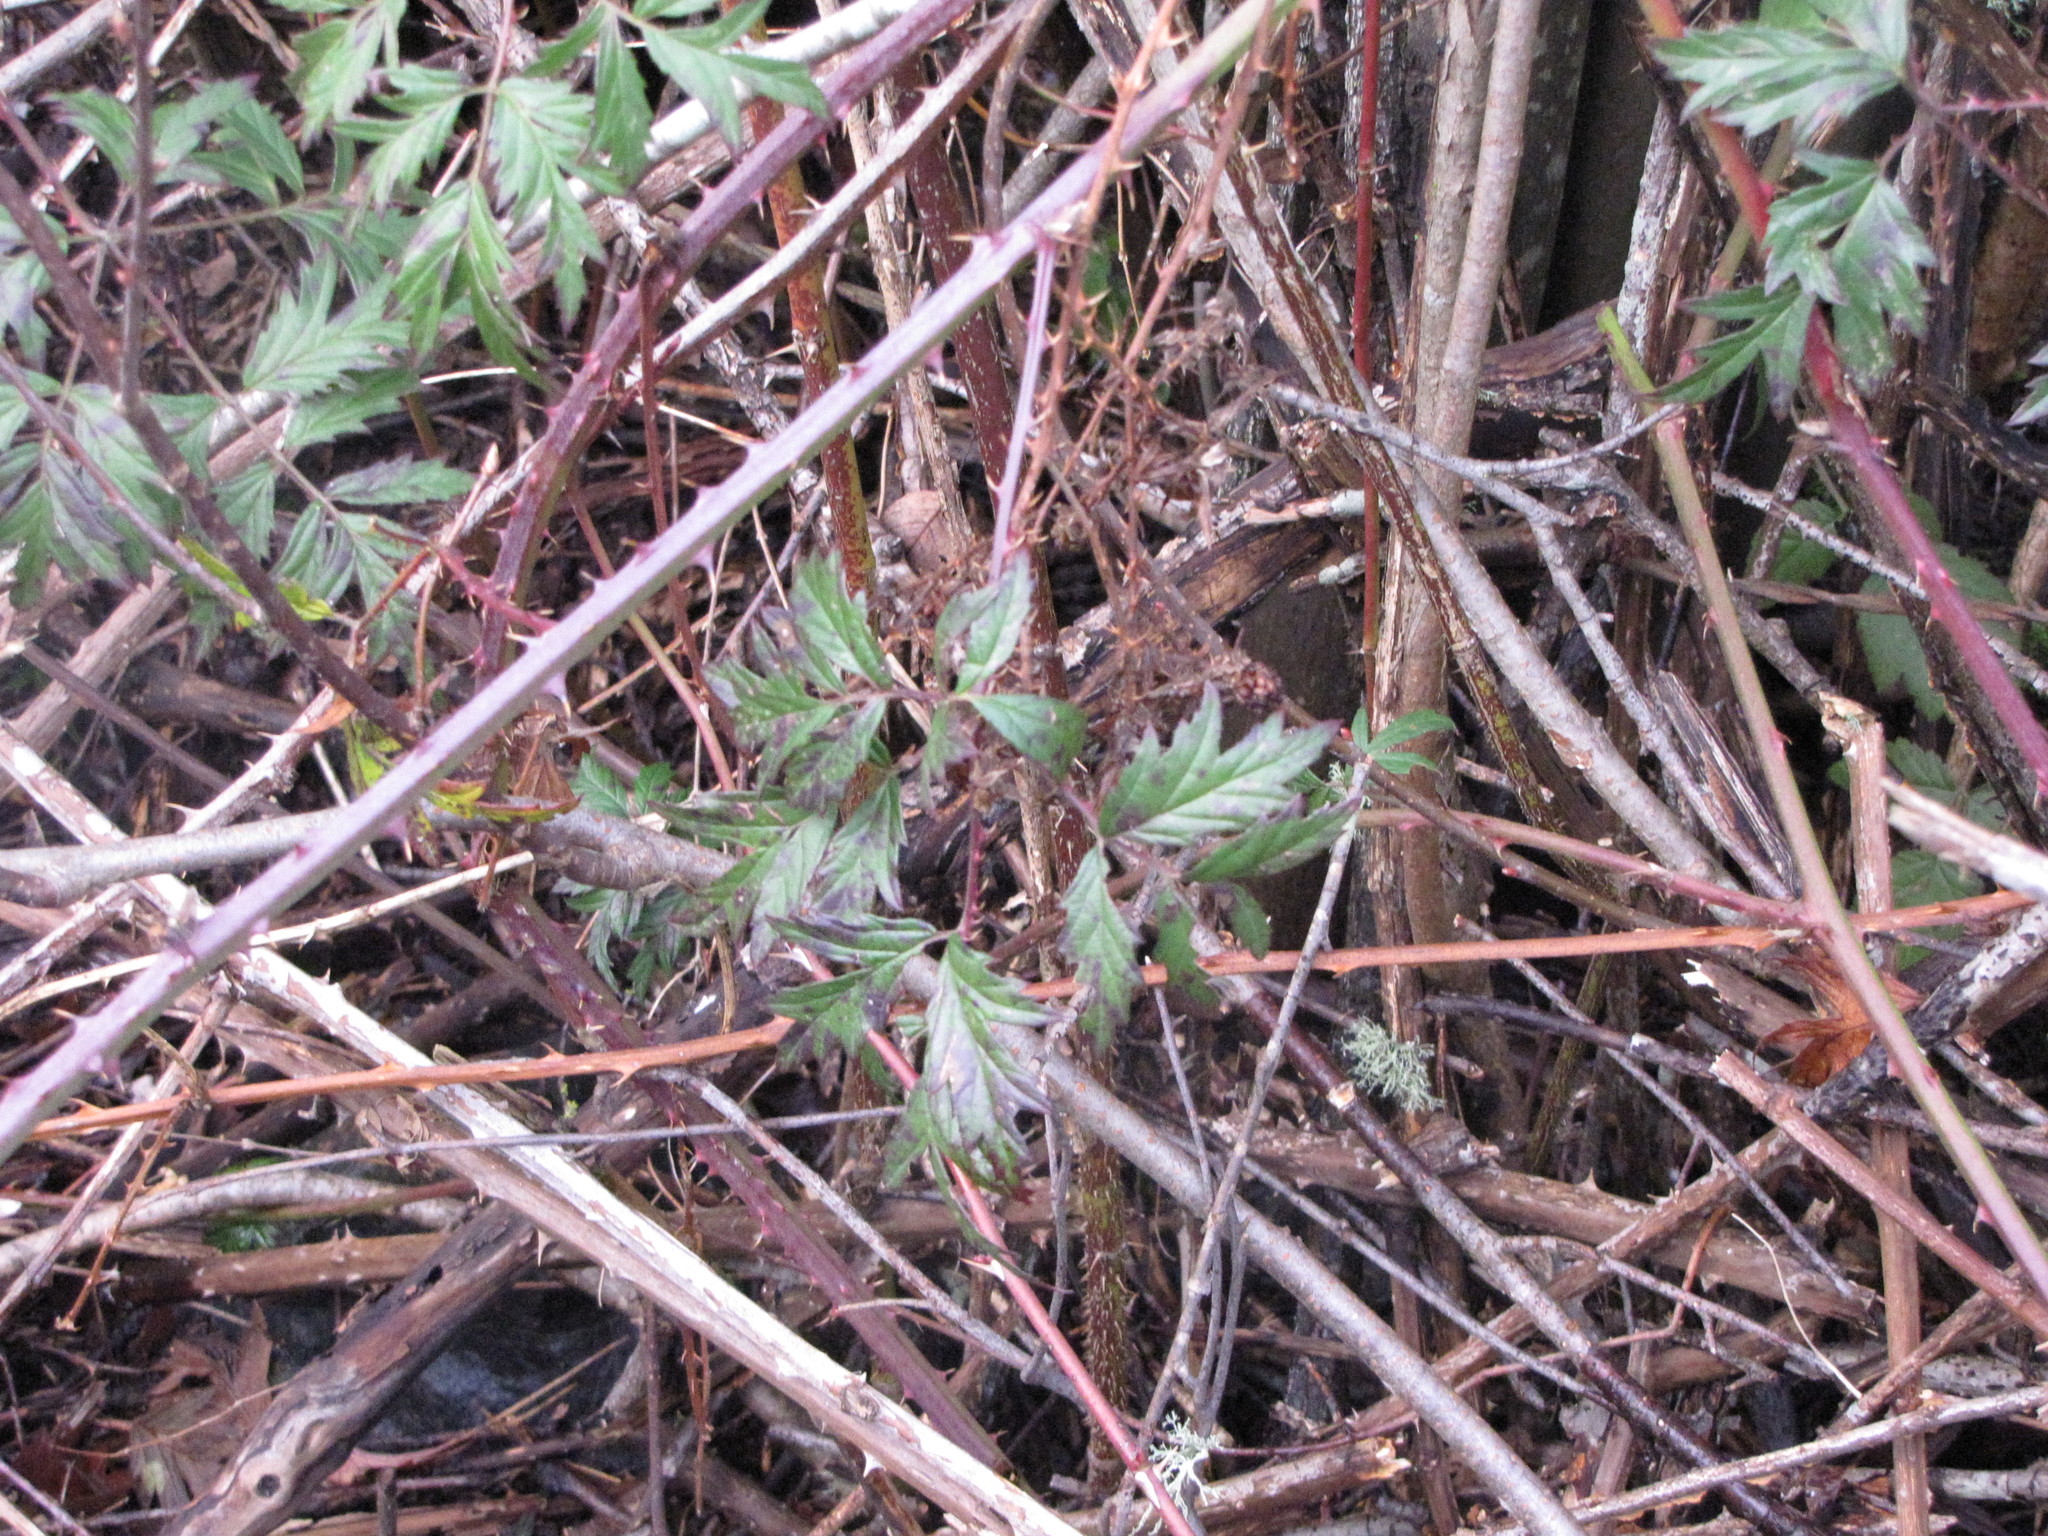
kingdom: Plantae
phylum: Tracheophyta
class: Magnoliopsida
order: Rosales
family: Rosaceae
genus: Rubus
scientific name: Rubus laciniatus
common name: Evergreen blackberry
